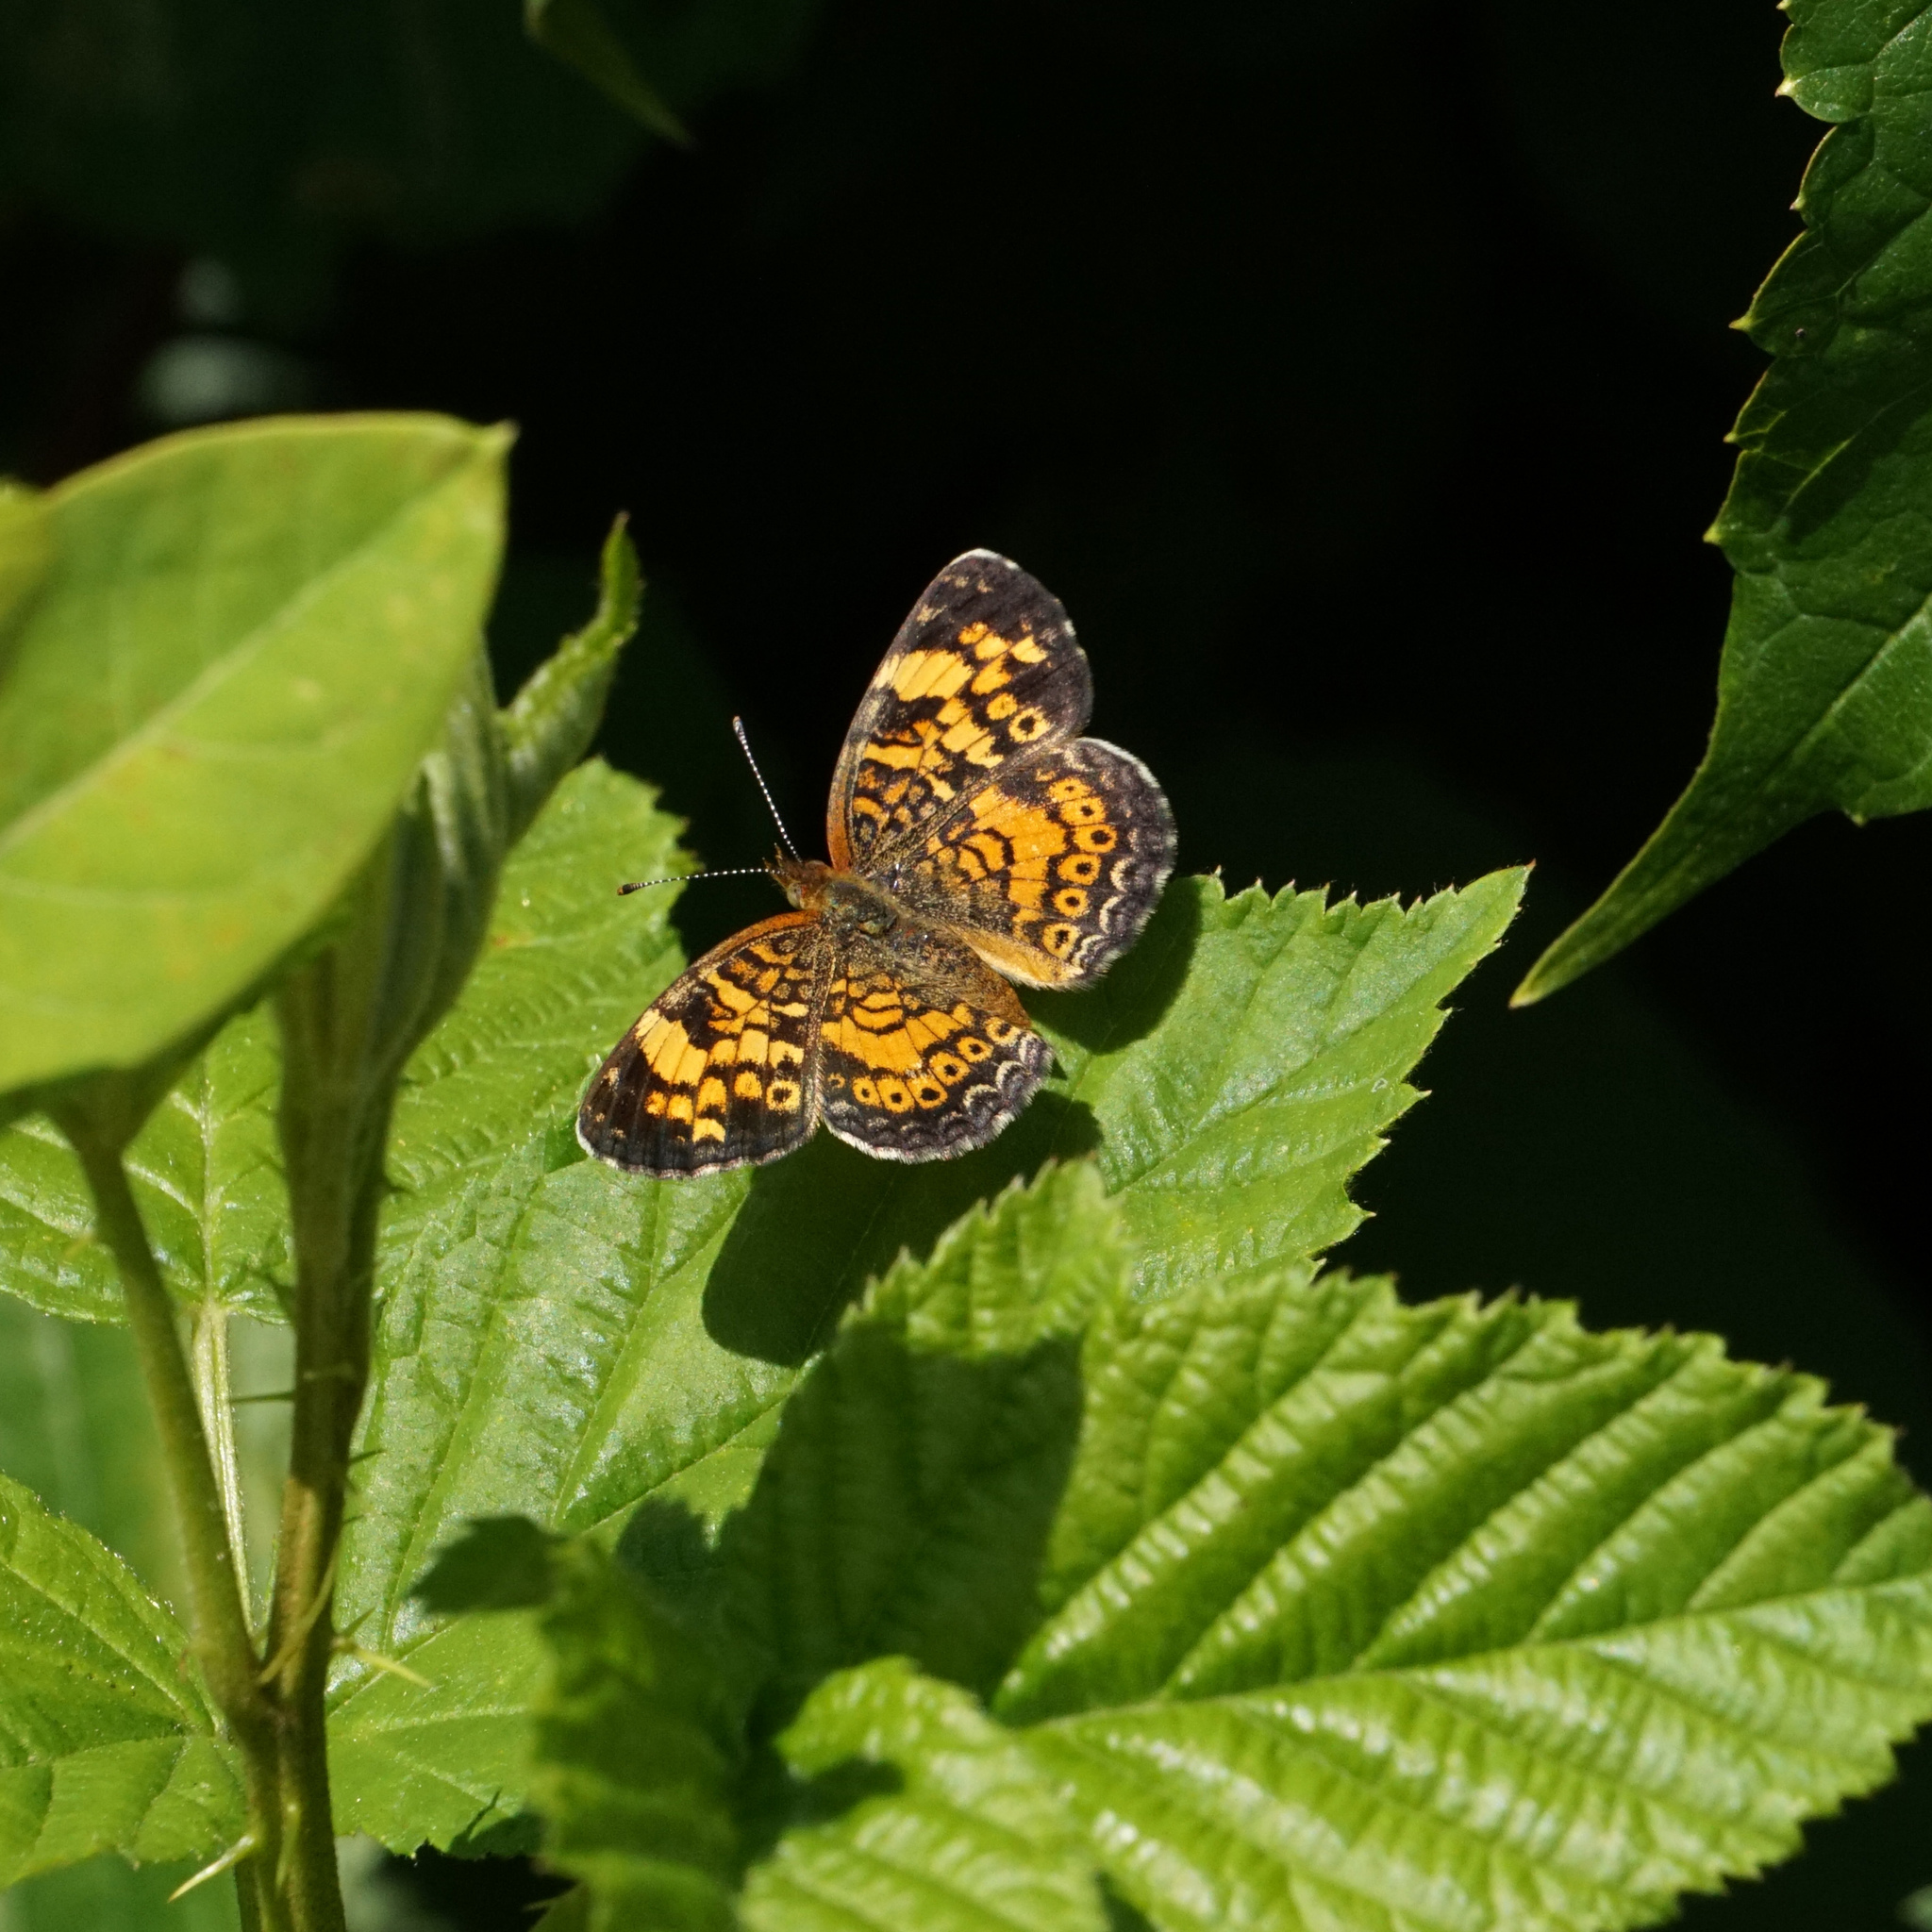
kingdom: Animalia
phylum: Arthropoda
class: Insecta
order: Lepidoptera
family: Nymphalidae
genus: Phyciodes
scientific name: Phyciodes tharos
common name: Pearl crescent
